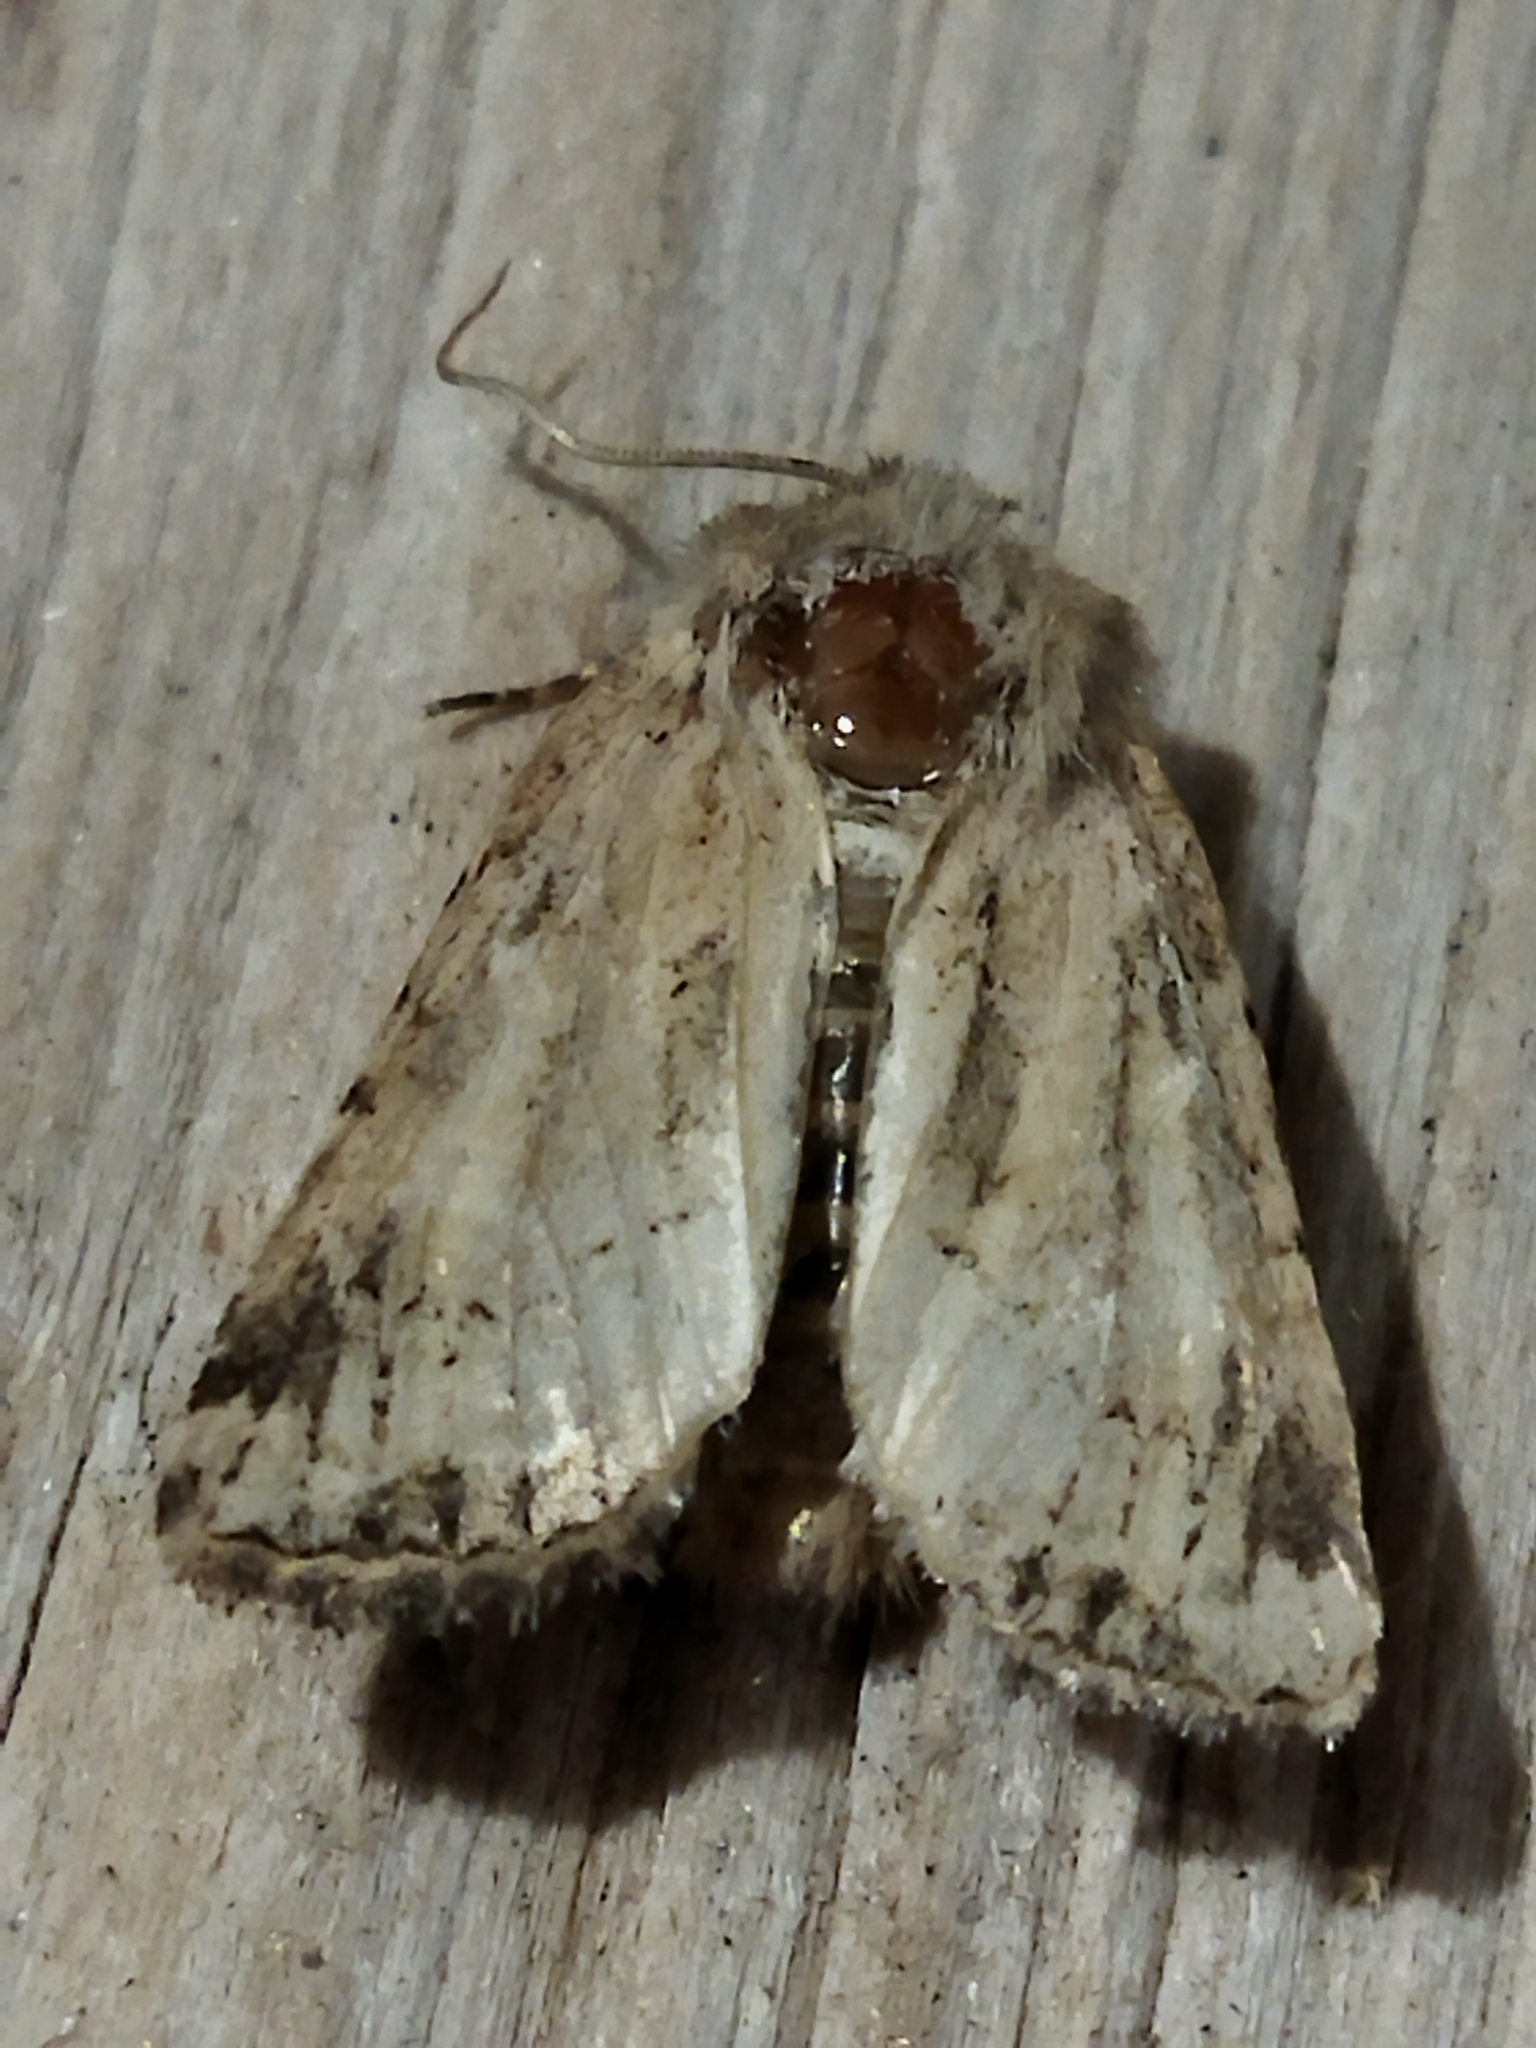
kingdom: Animalia
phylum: Arthropoda
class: Insecta
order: Lepidoptera
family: Noctuidae
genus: Luperina
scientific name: Luperina dumerilii
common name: Dumeril's rustic
